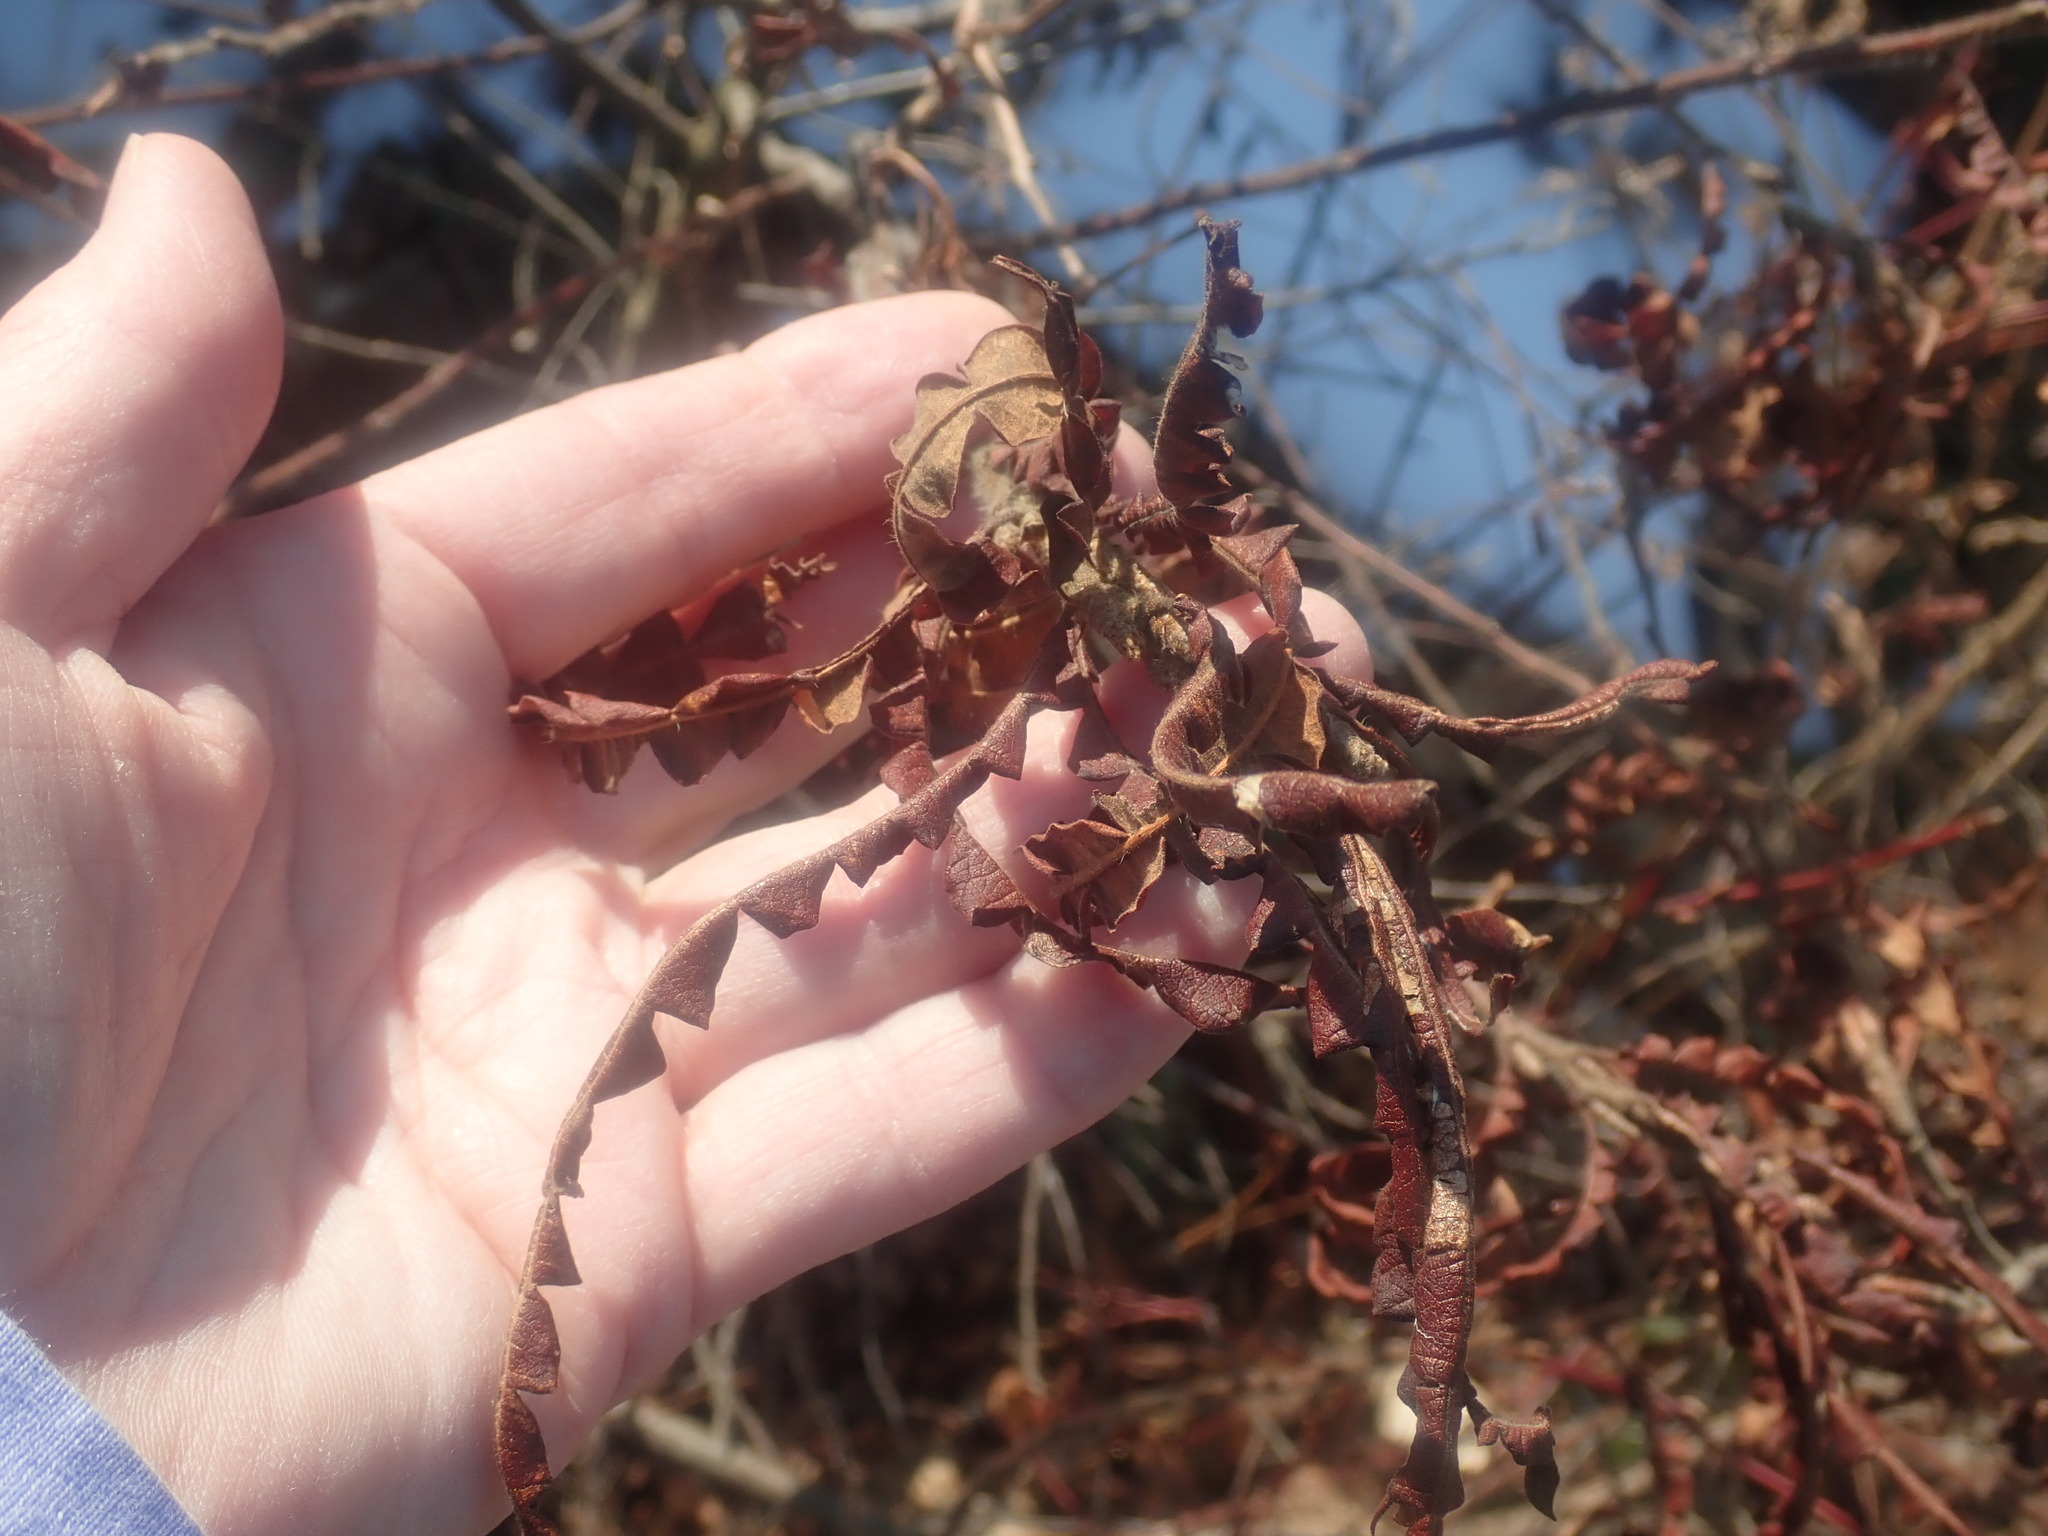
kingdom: Plantae
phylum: Tracheophyta
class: Magnoliopsida
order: Fagales
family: Myricaceae
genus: Comptonia
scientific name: Comptonia peregrina
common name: Sweet-fern
